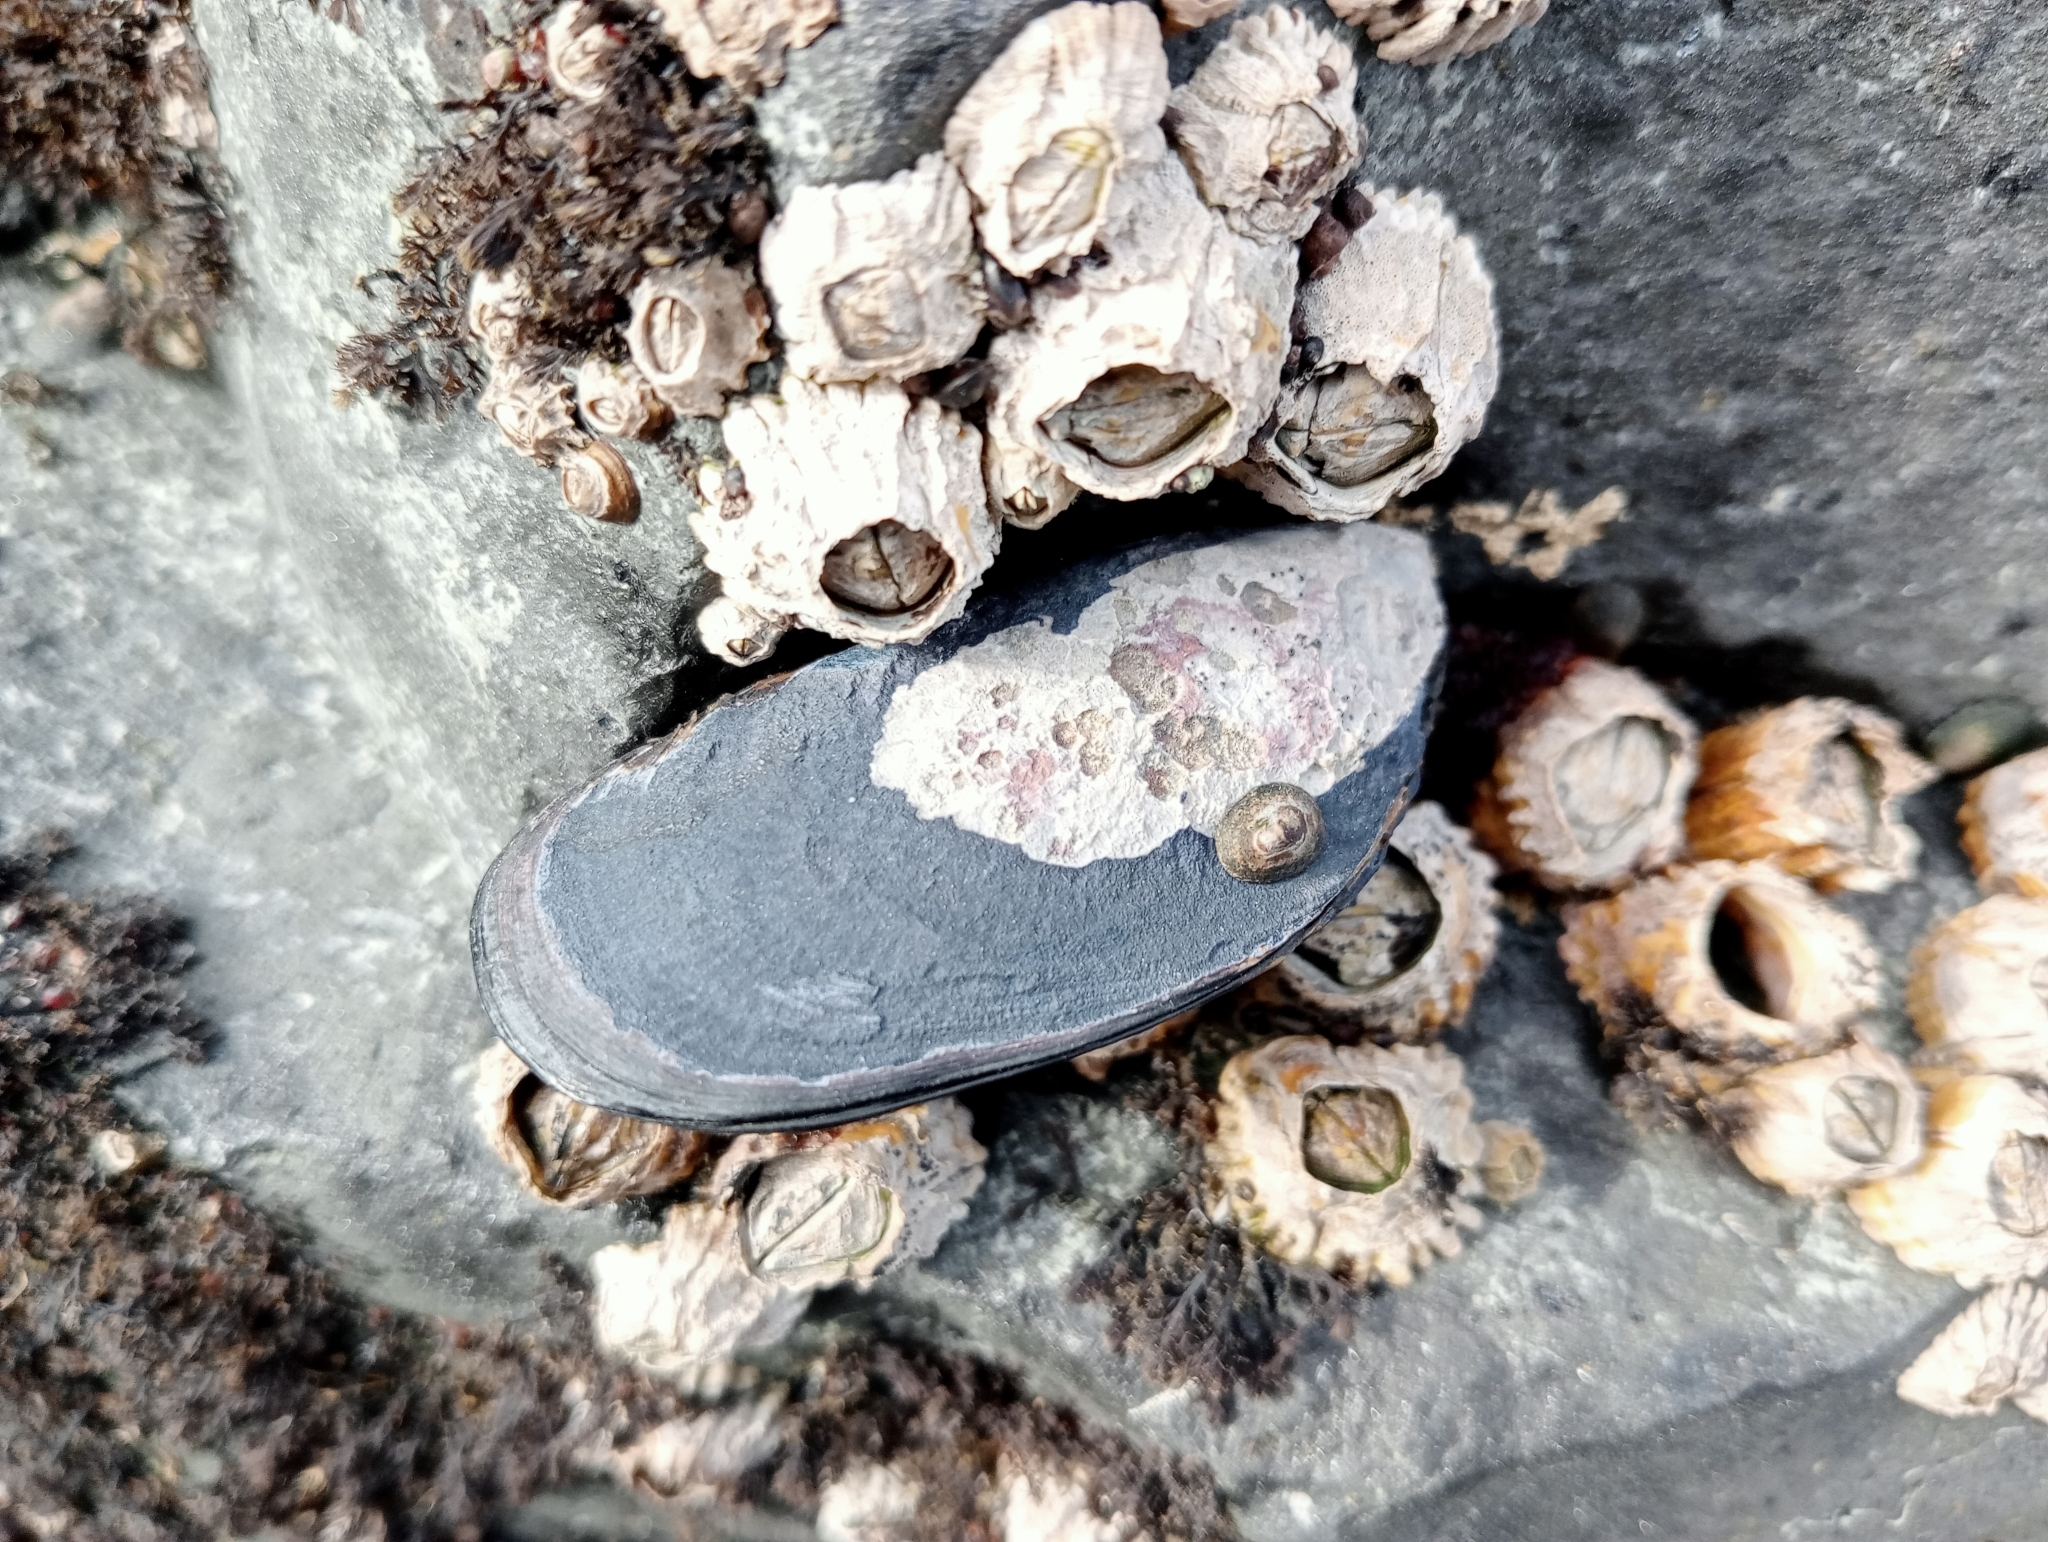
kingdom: Animalia
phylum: Mollusca
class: Bivalvia
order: Mytilida
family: Mytilidae
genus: Mytilus
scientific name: Mytilus planulatus
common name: Australian mussel
